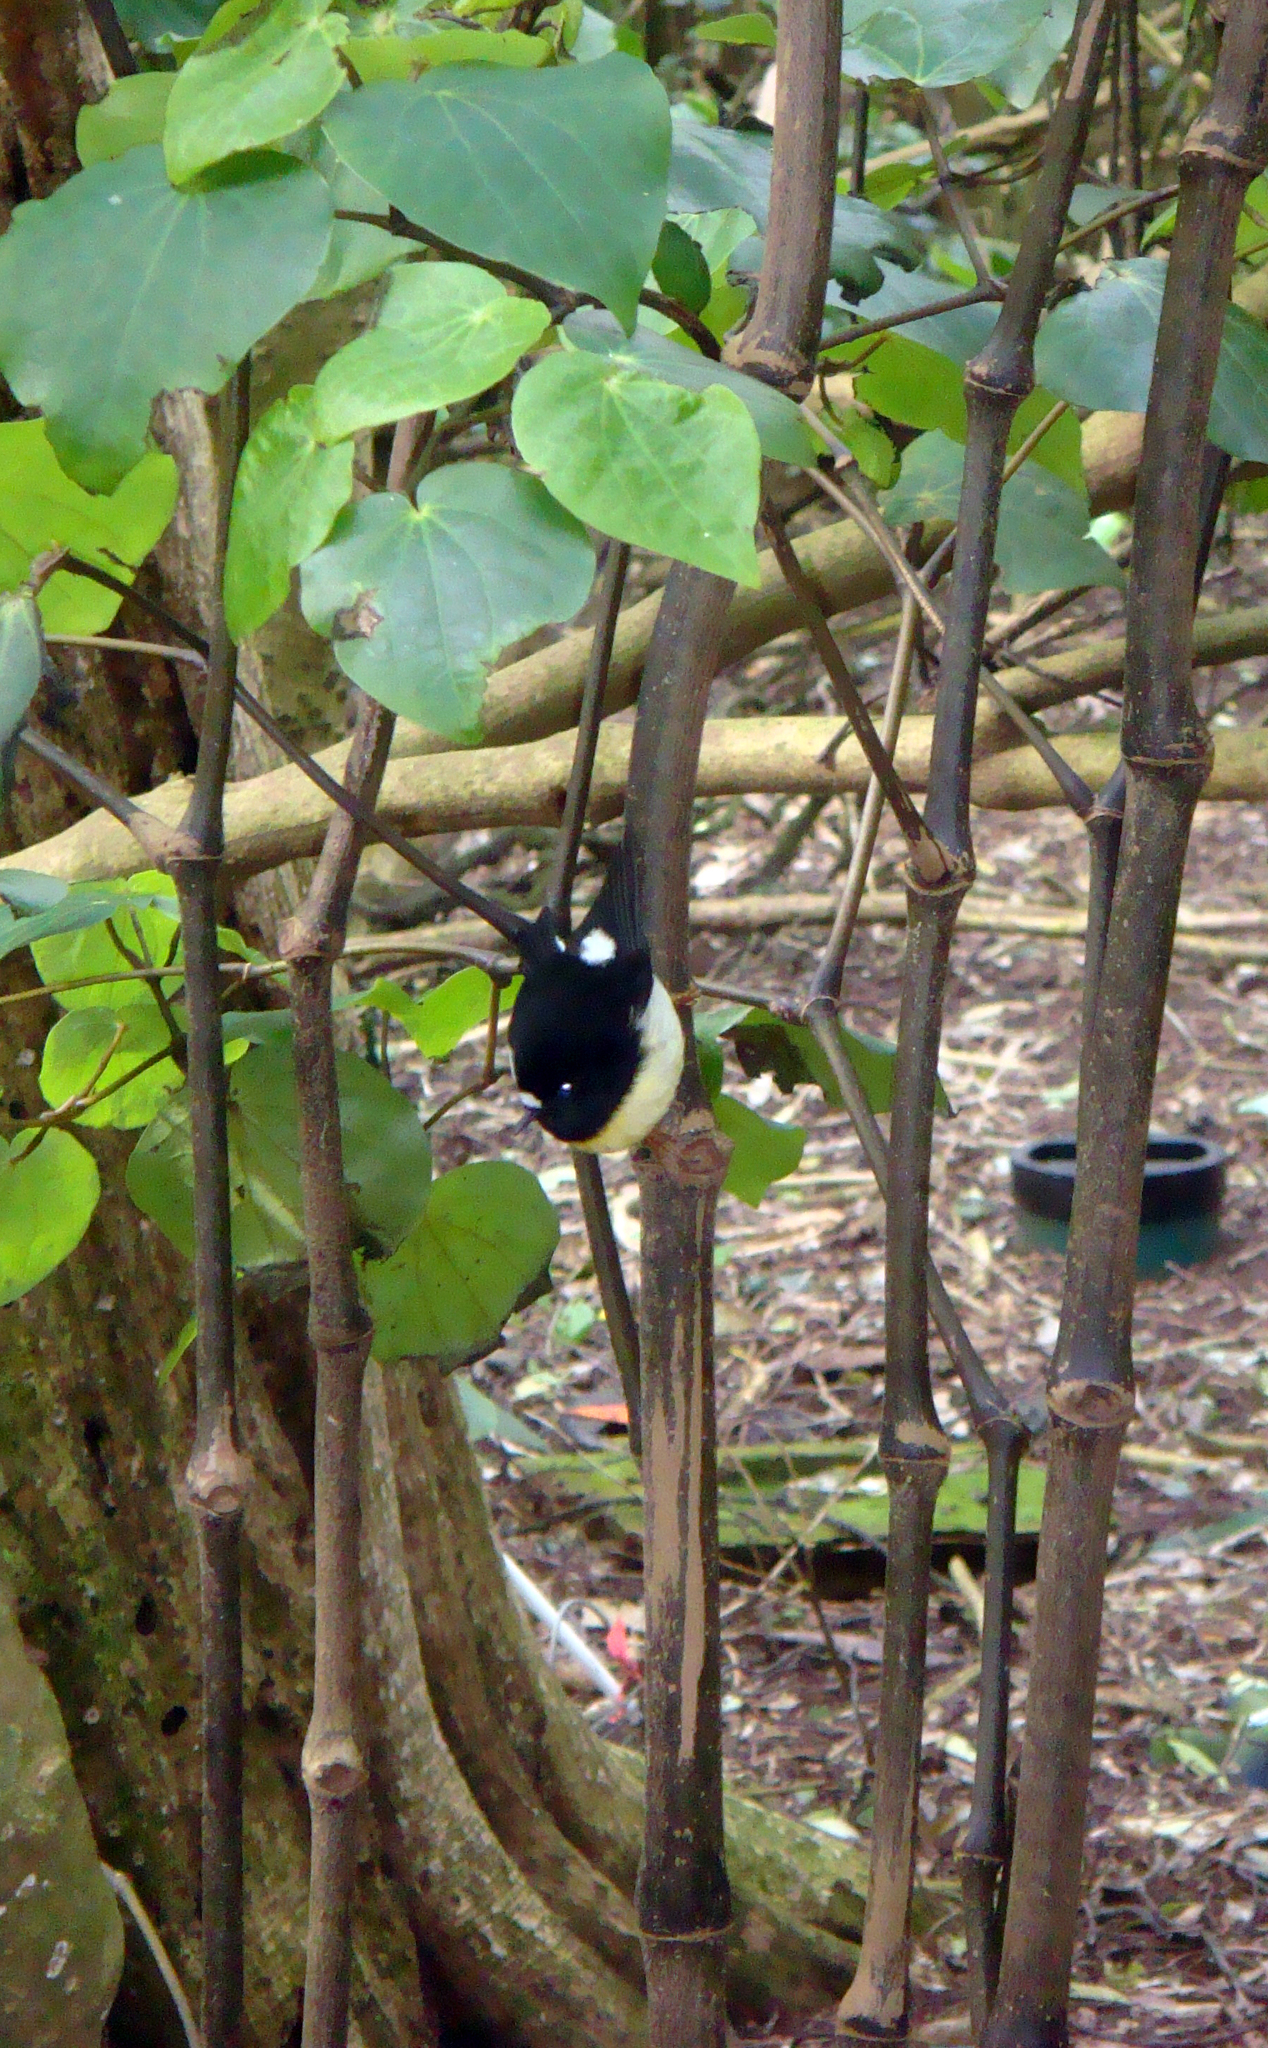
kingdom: Animalia
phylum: Chordata
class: Aves
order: Passeriformes
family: Petroicidae
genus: Petroica
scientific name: Petroica macrocephala
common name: Tomtit
